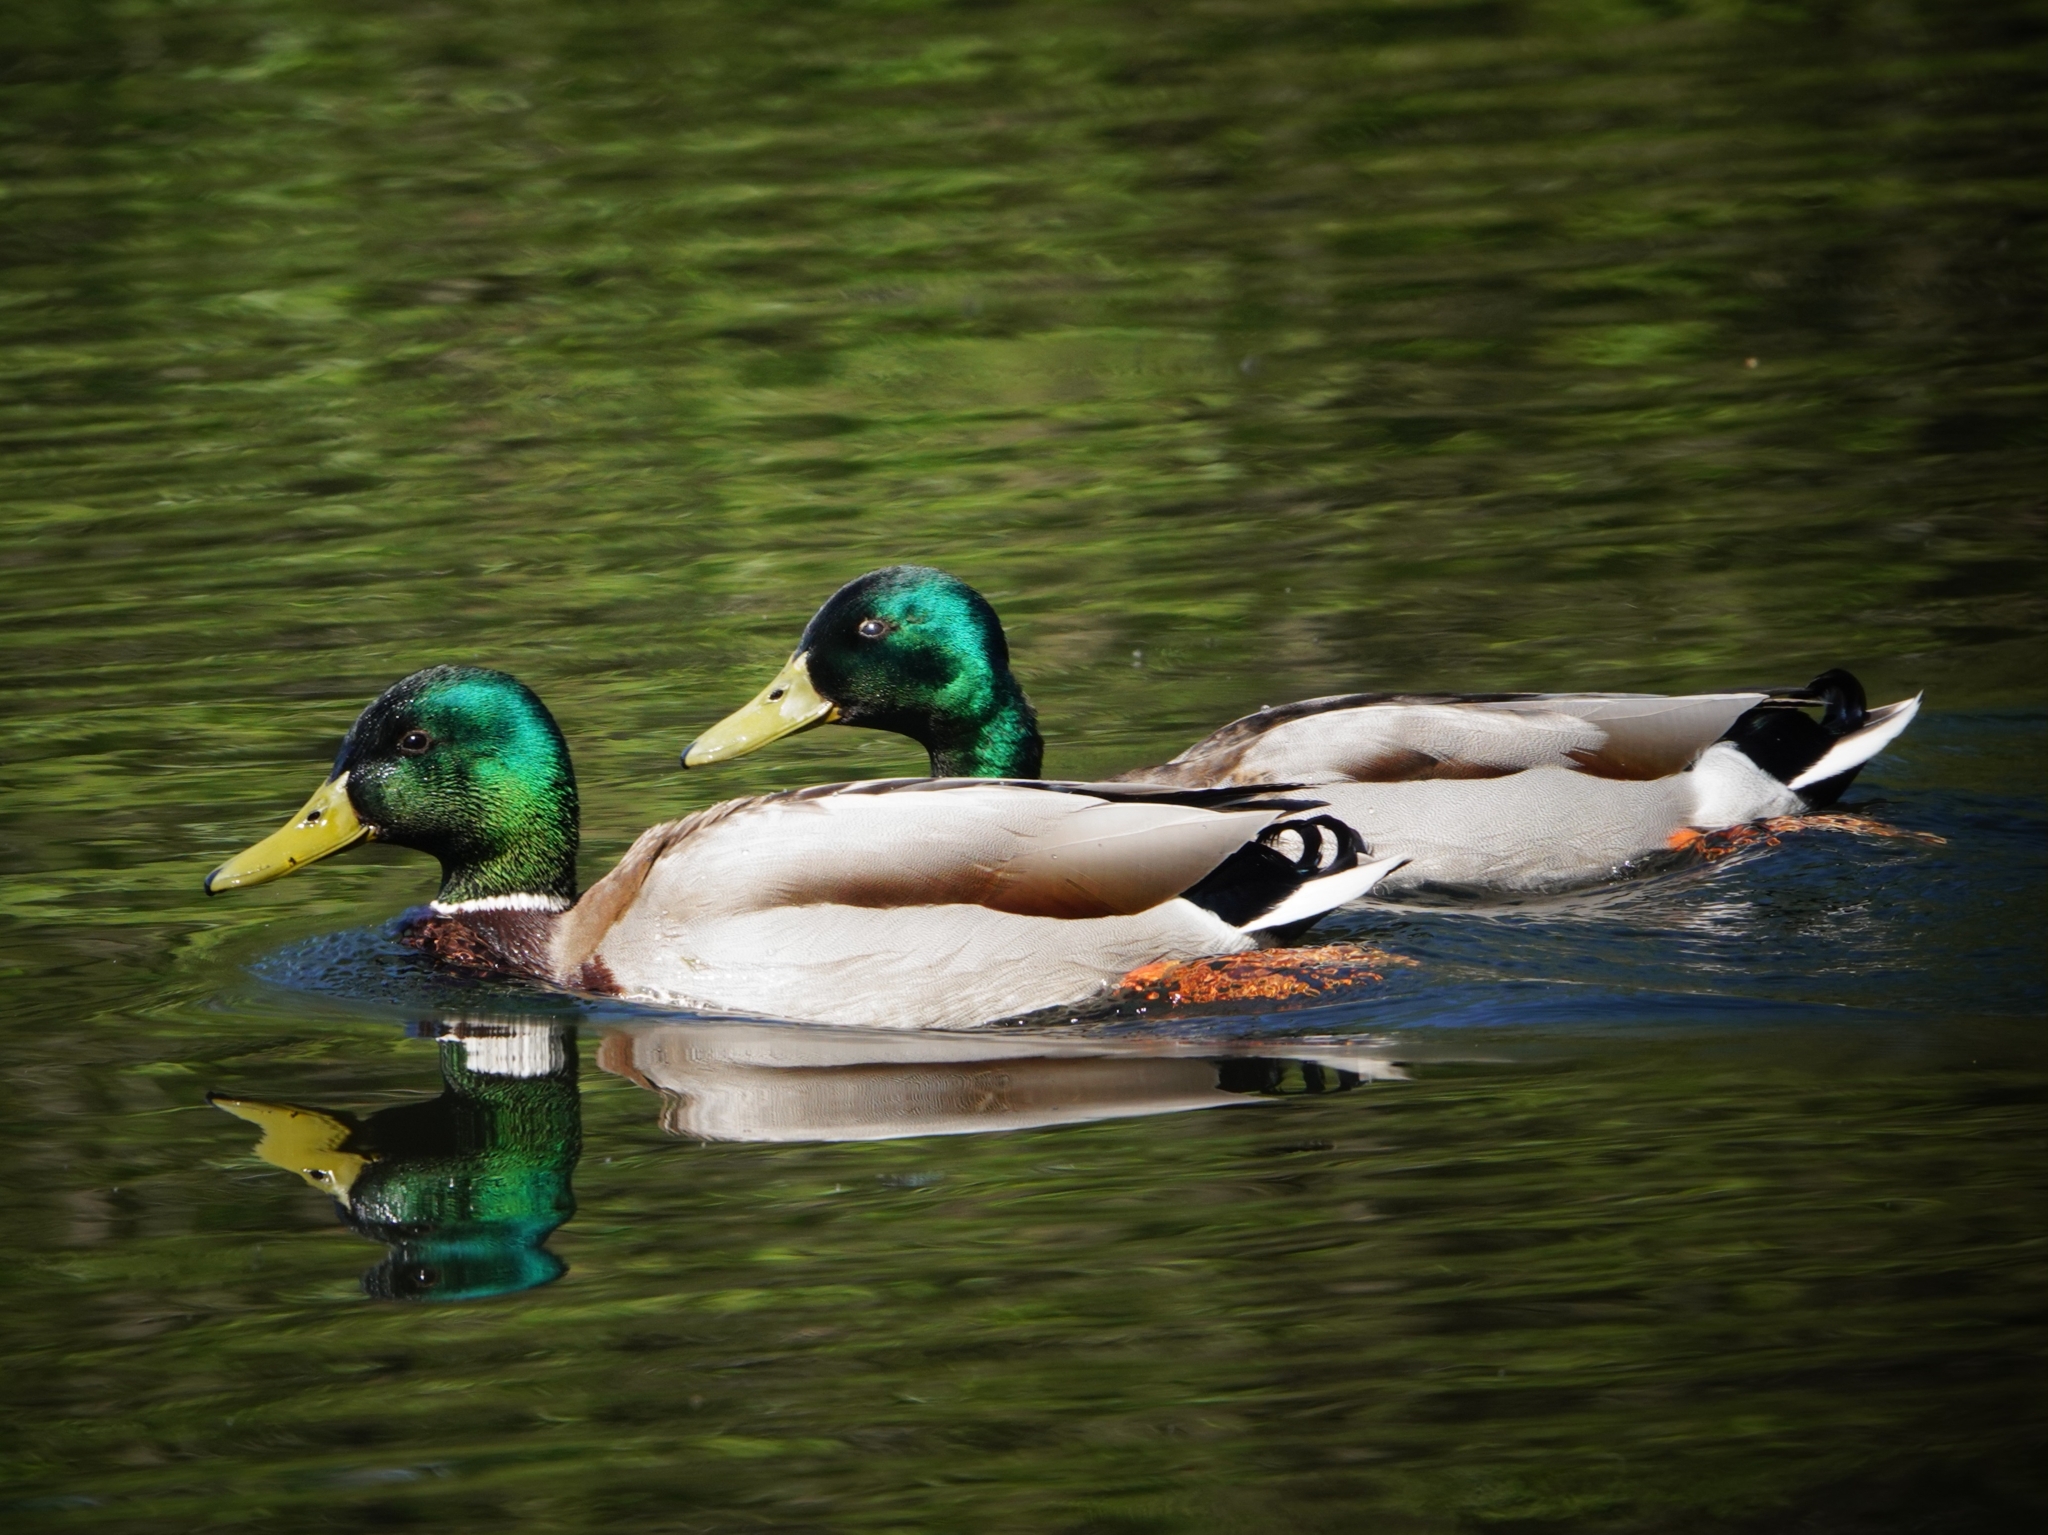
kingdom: Animalia
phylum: Chordata
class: Aves
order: Anseriformes
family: Anatidae
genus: Anas
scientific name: Anas platyrhynchos
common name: Mallard
